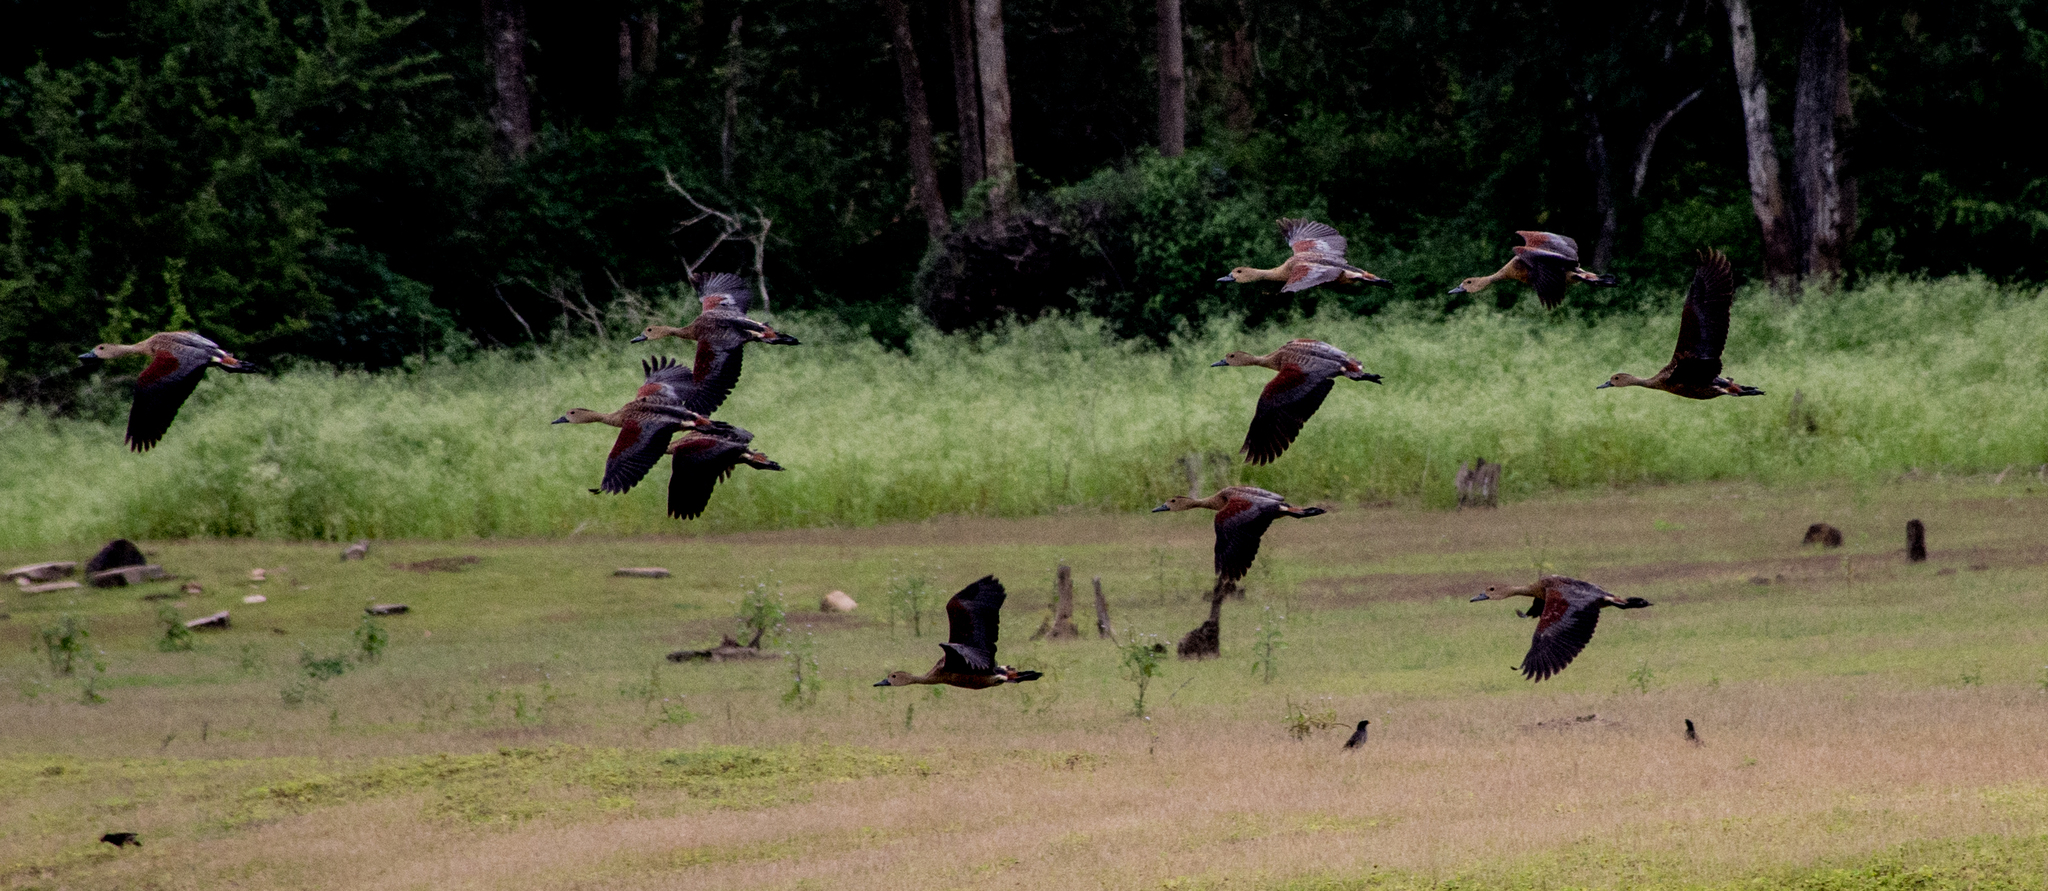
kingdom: Animalia
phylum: Chordata
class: Aves
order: Anseriformes
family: Anatidae
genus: Dendrocygna
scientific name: Dendrocygna javanica
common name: Lesser whistling-duck
